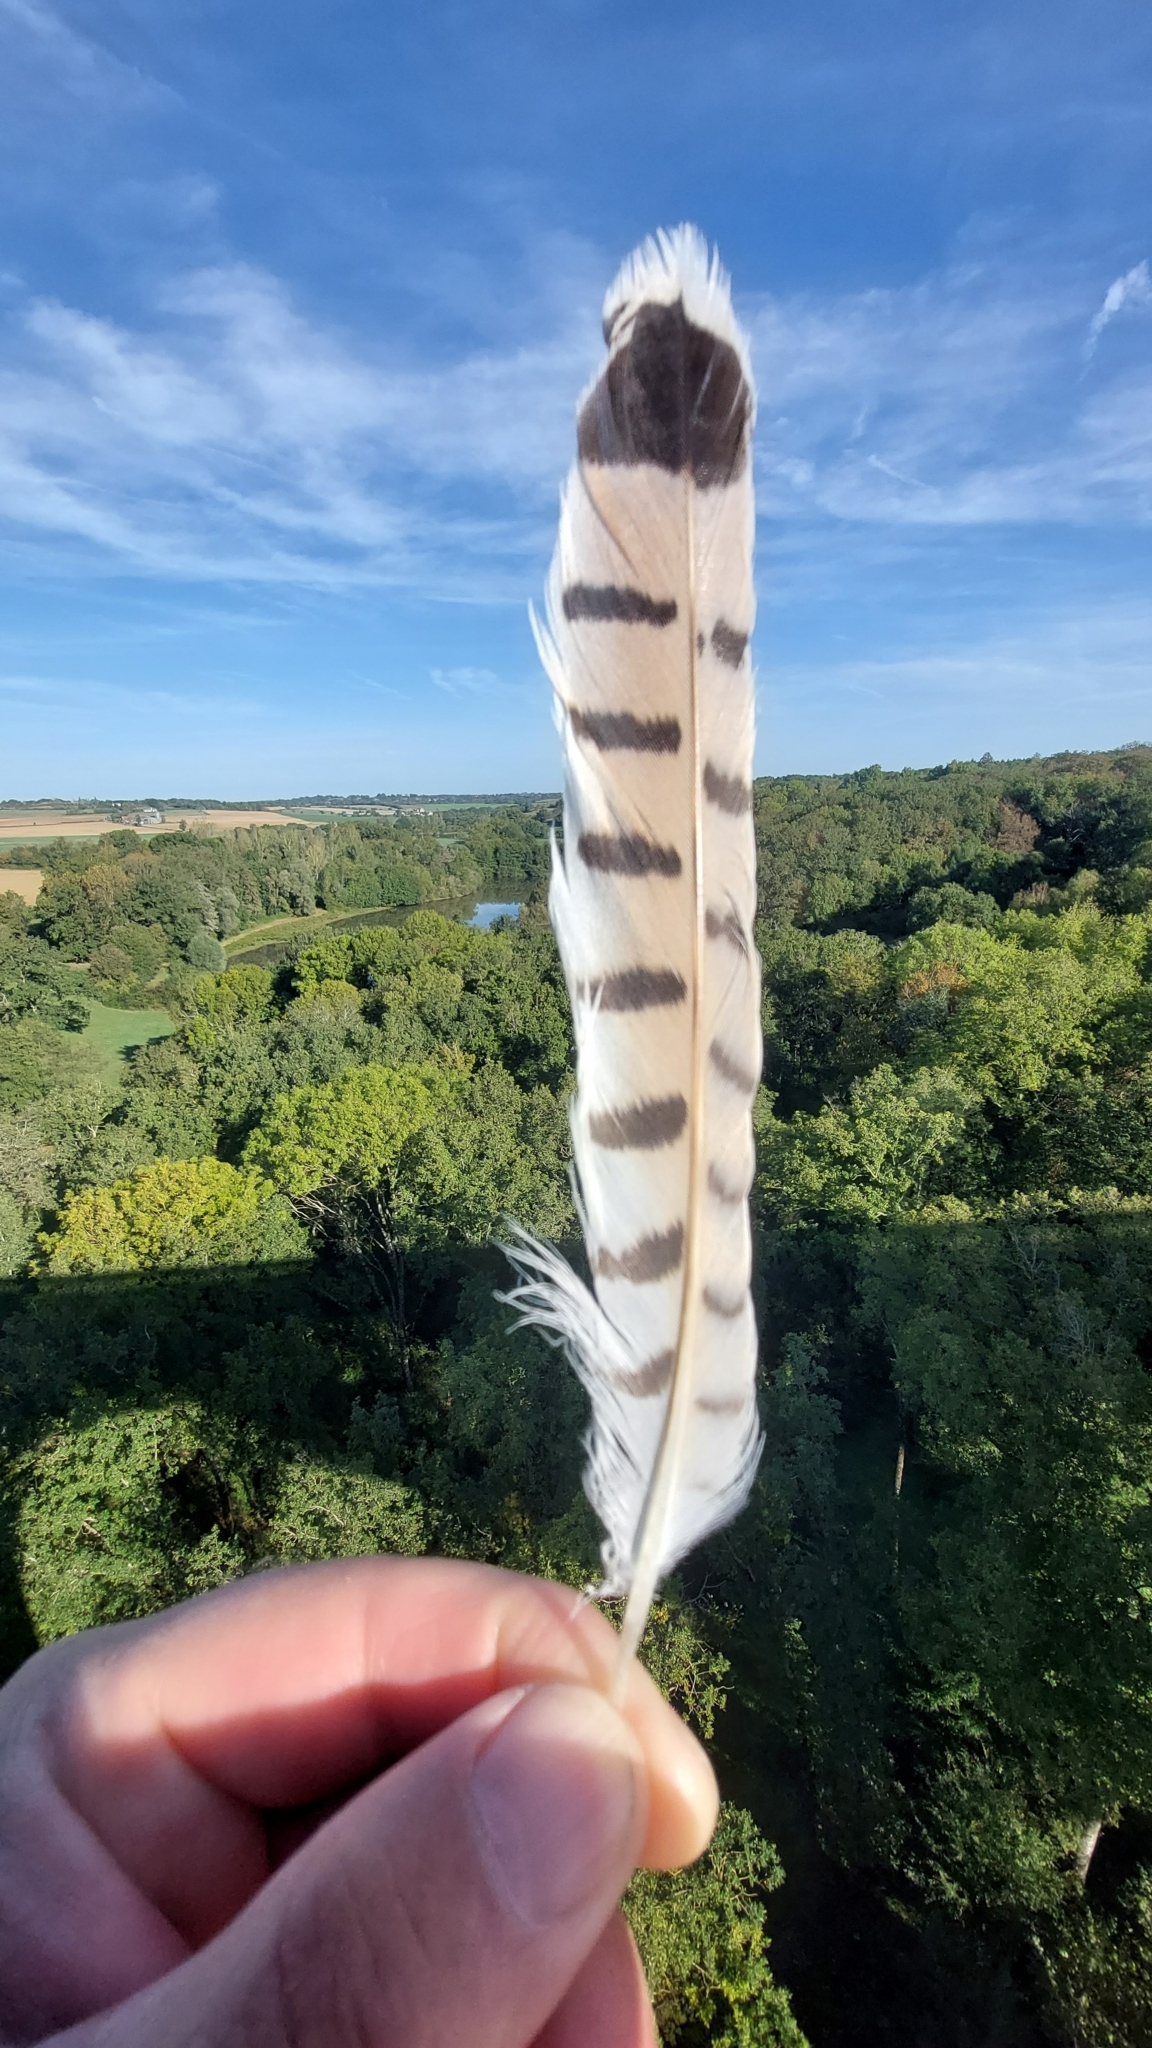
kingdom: Animalia
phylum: Chordata
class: Aves
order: Falconiformes
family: Falconidae
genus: Falco
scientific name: Falco tinnunculus
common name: Common kestrel
